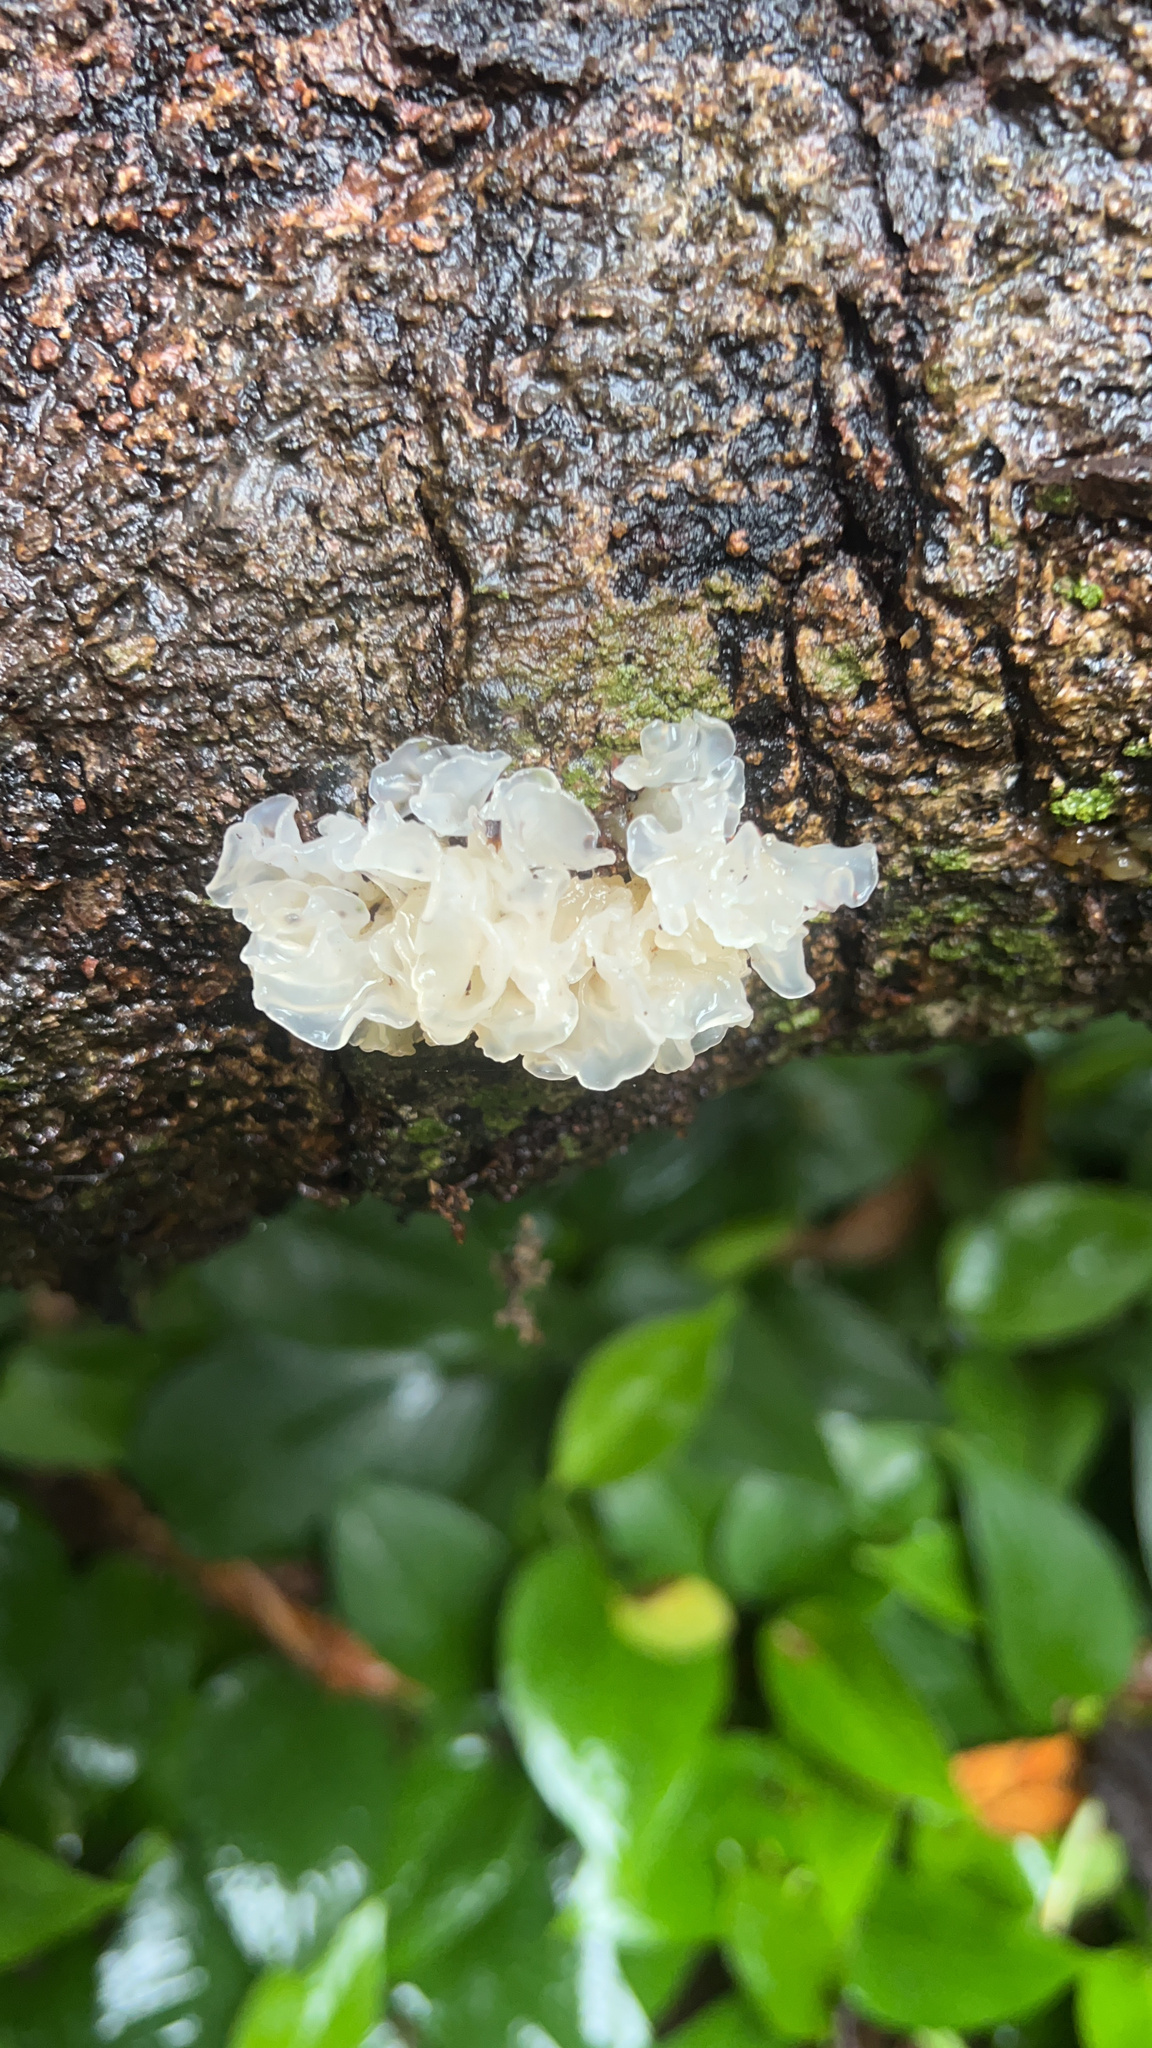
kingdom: Fungi
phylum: Basidiomycota
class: Tremellomycetes
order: Tremellales
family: Tremellaceae
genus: Tremella
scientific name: Tremella fuciformis
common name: Snow fungus
